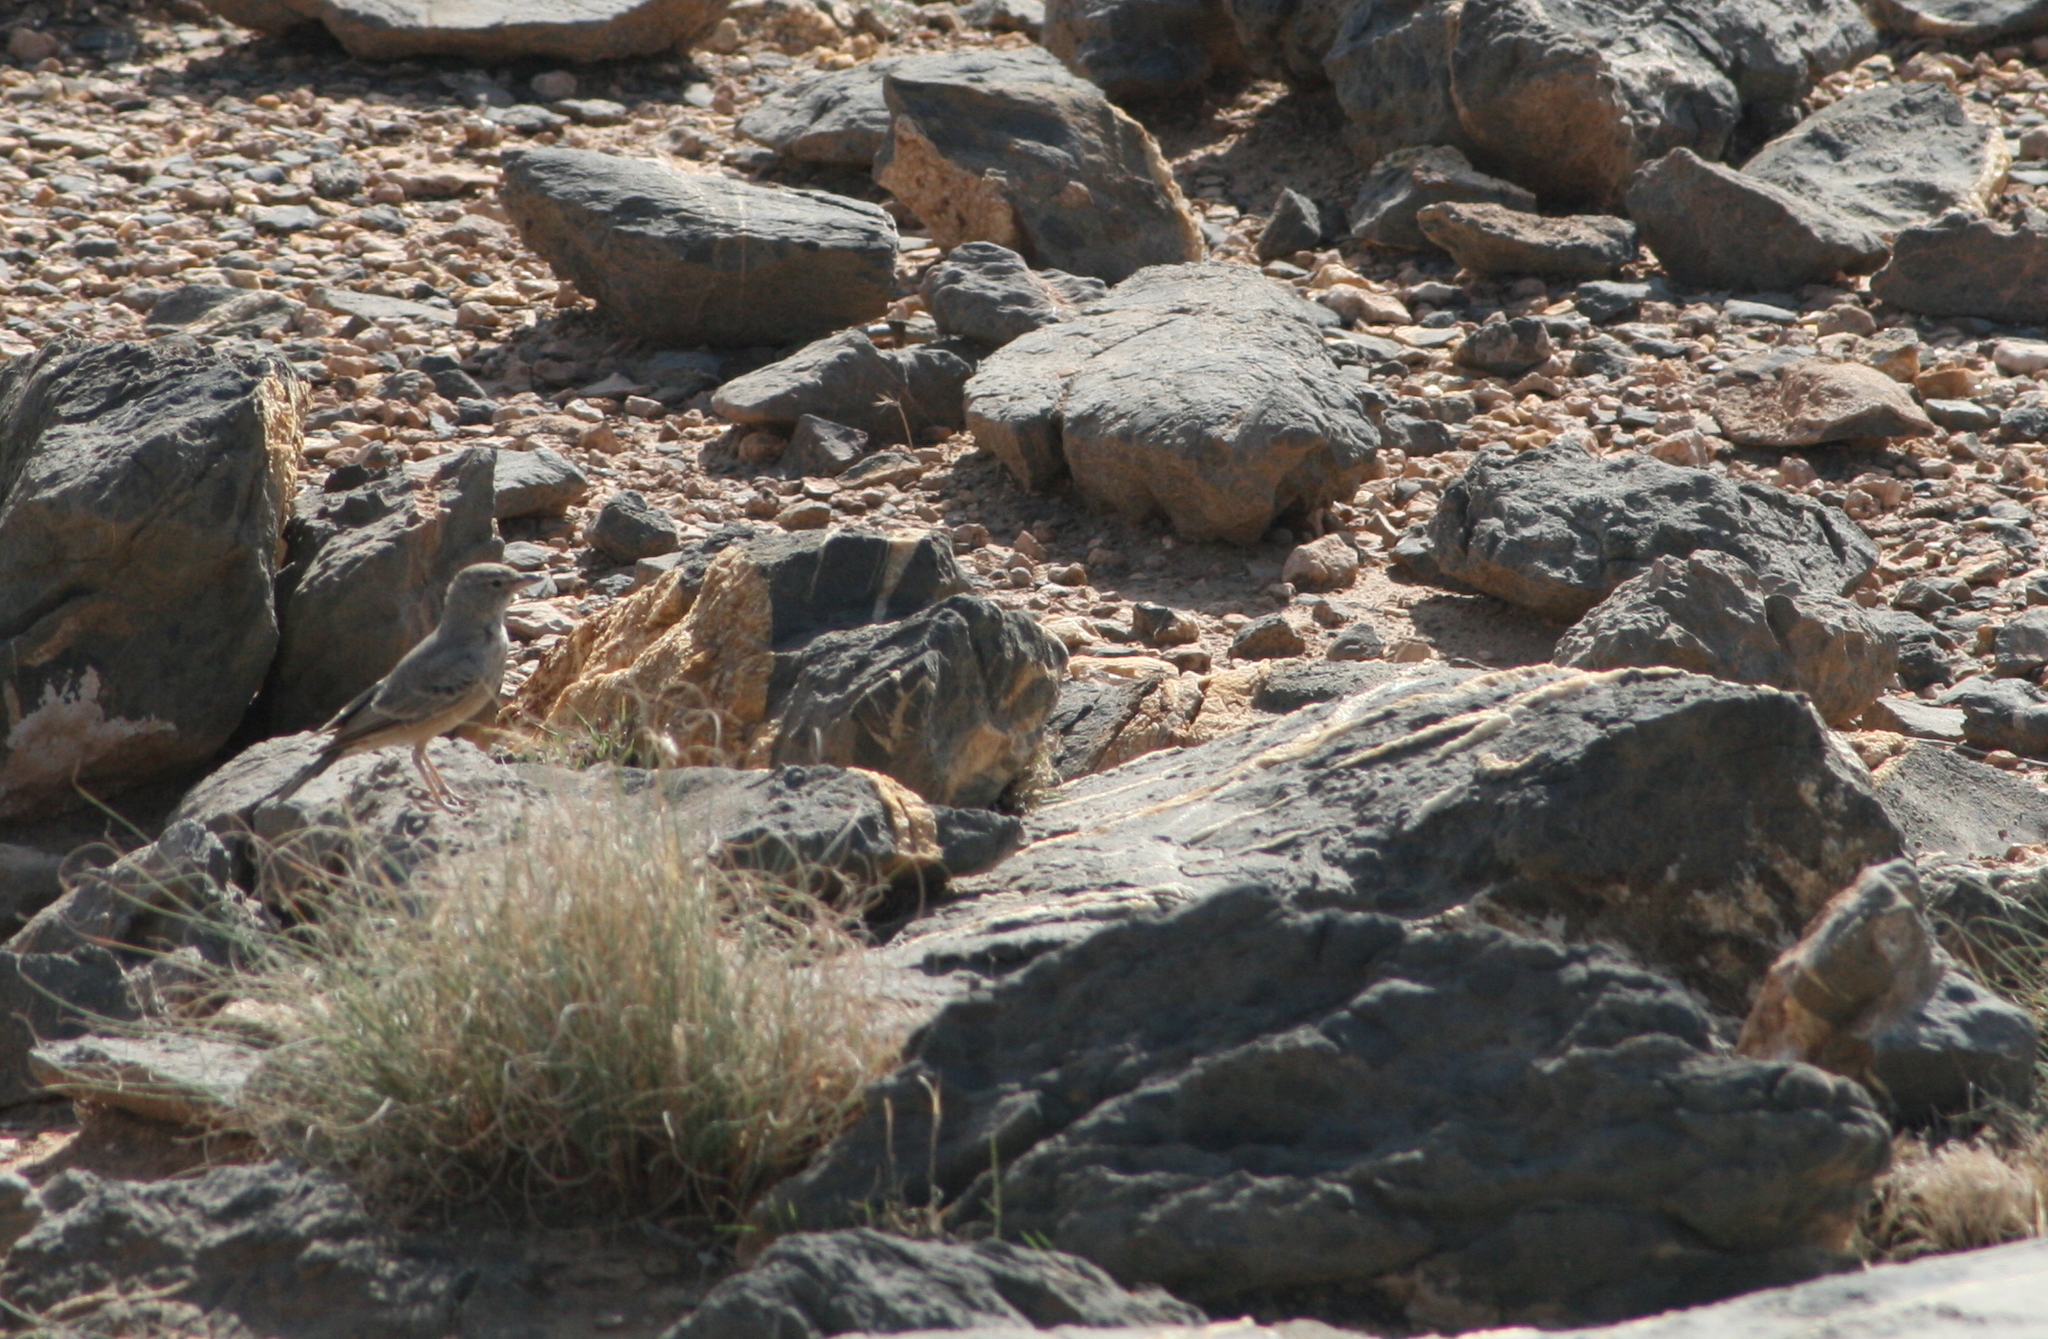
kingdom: Animalia
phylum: Chordata
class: Aves
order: Passeriformes
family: Alaudidae
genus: Ammomanes
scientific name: Ammomanes deserti
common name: Desert lark
